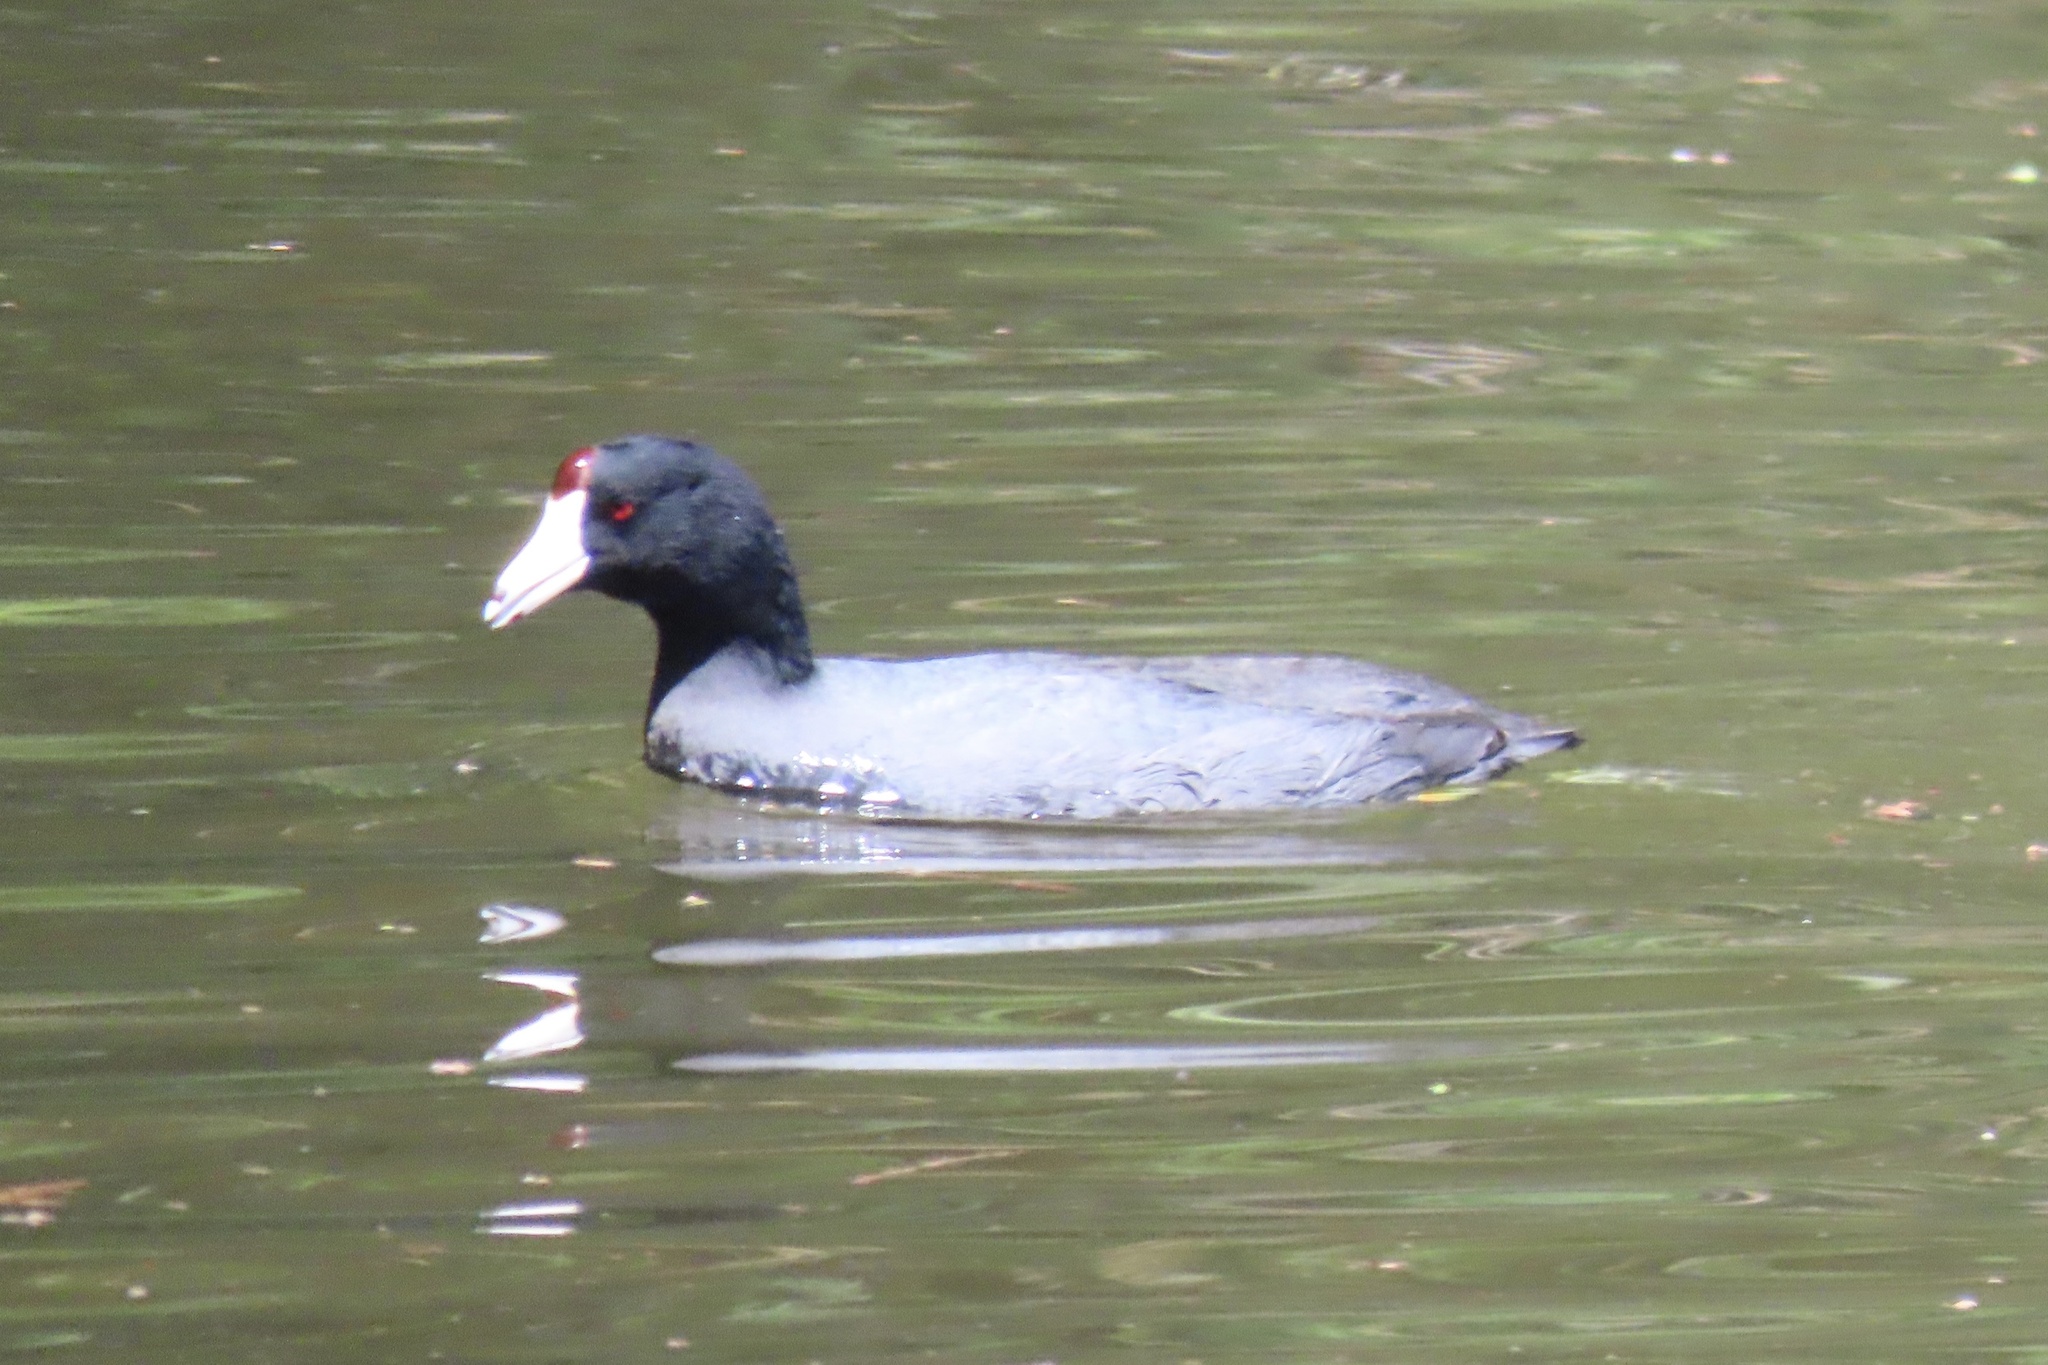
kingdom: Animalia
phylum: Chordata
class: Aves
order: Gruiformes
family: Rallidae
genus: Fulica
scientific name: Fulica americana
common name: American coot
